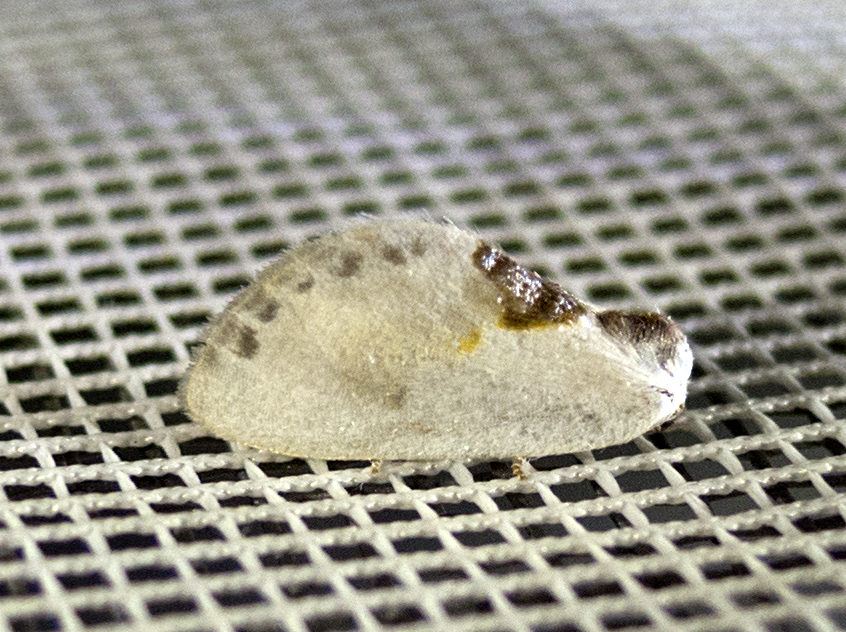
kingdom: Animalia
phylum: Arthropoda
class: Insecta
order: Lepidoptera
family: Drepanidae
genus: Cilix
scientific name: Cilix glaucata
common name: Chinese character
